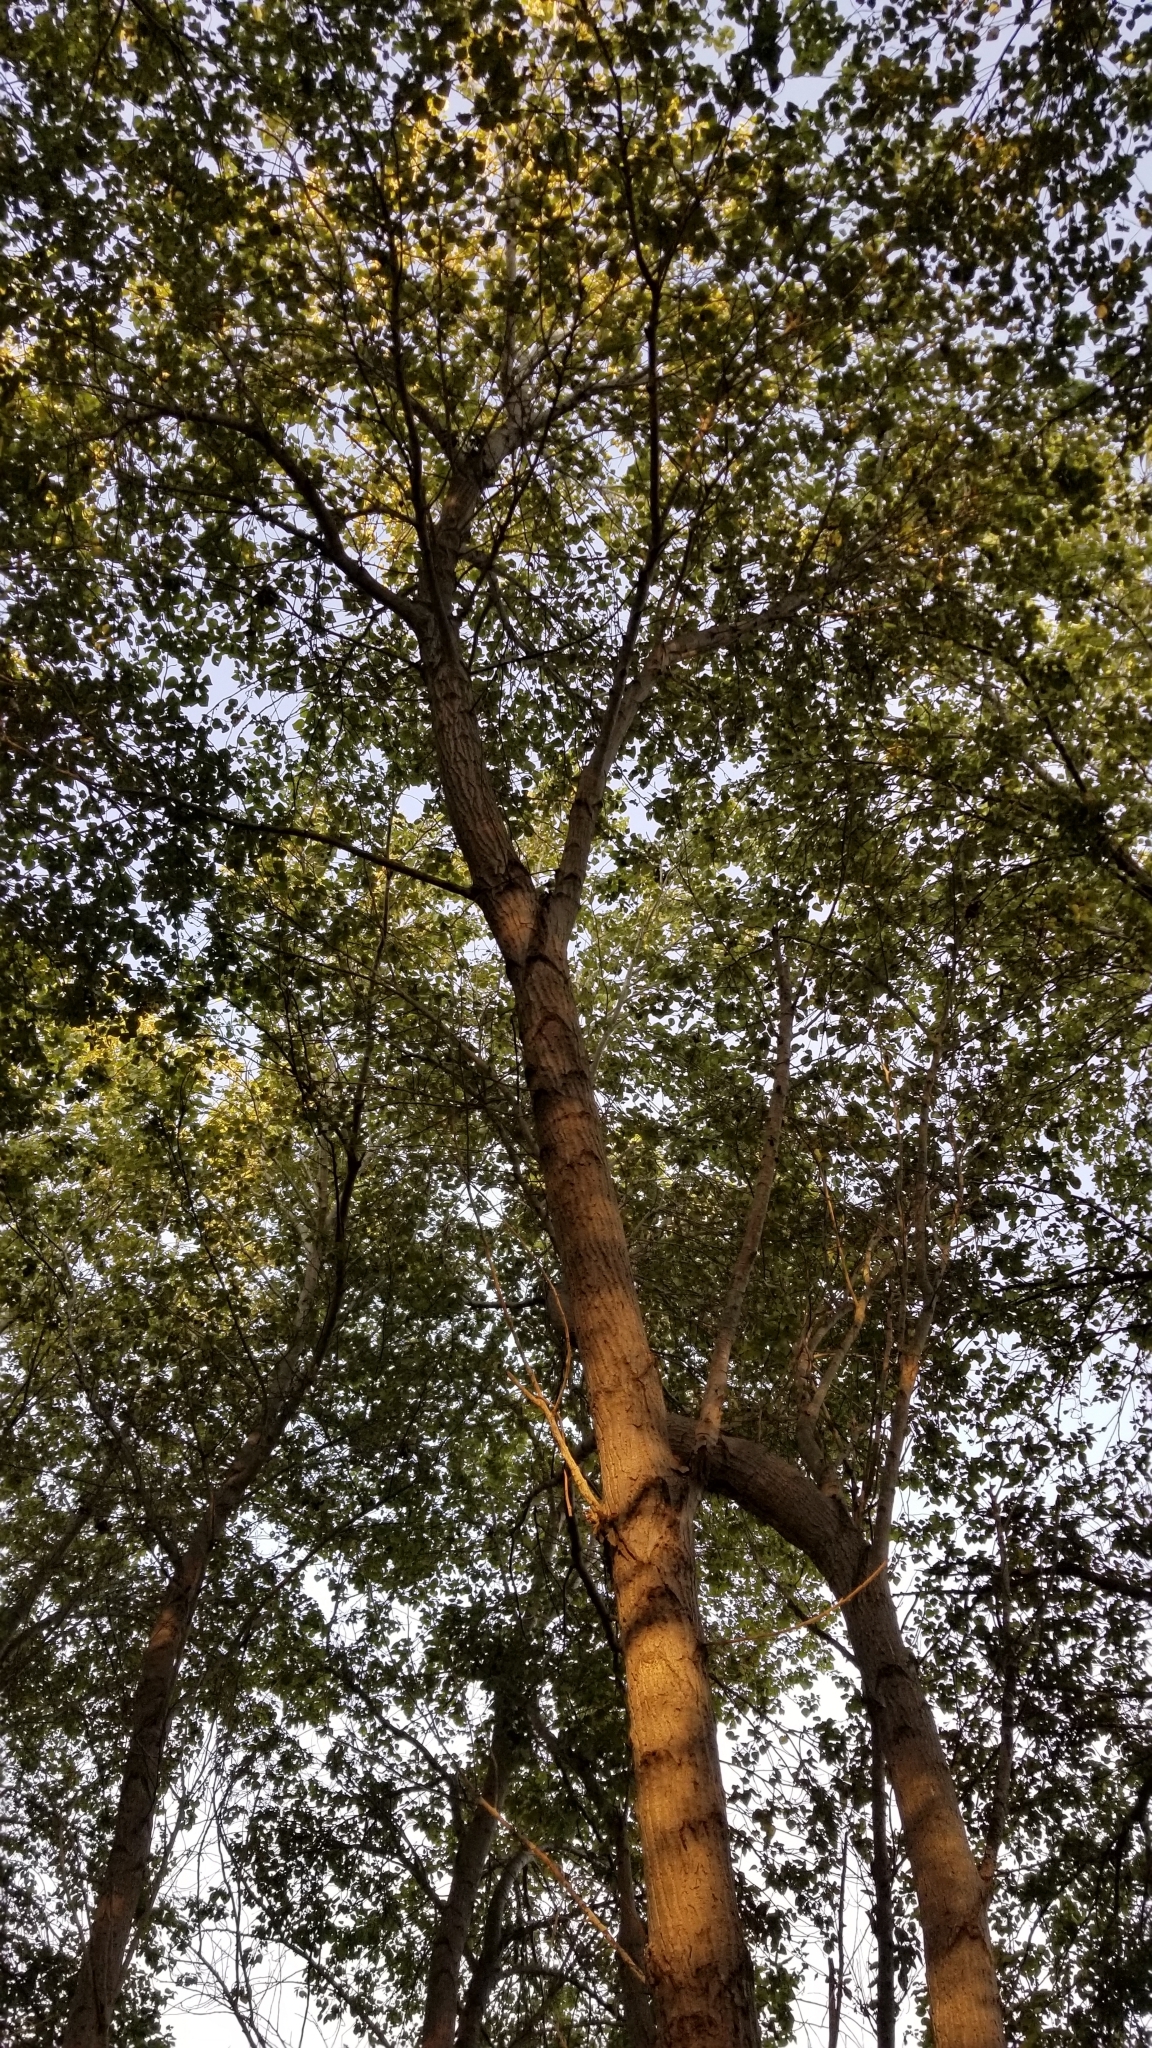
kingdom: Plantae
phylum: Tracheophyta
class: Magnoliopsida
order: Malpighiales
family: Salicaceae
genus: Populus
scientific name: Populus trichocarpa
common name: Black cottonwood
